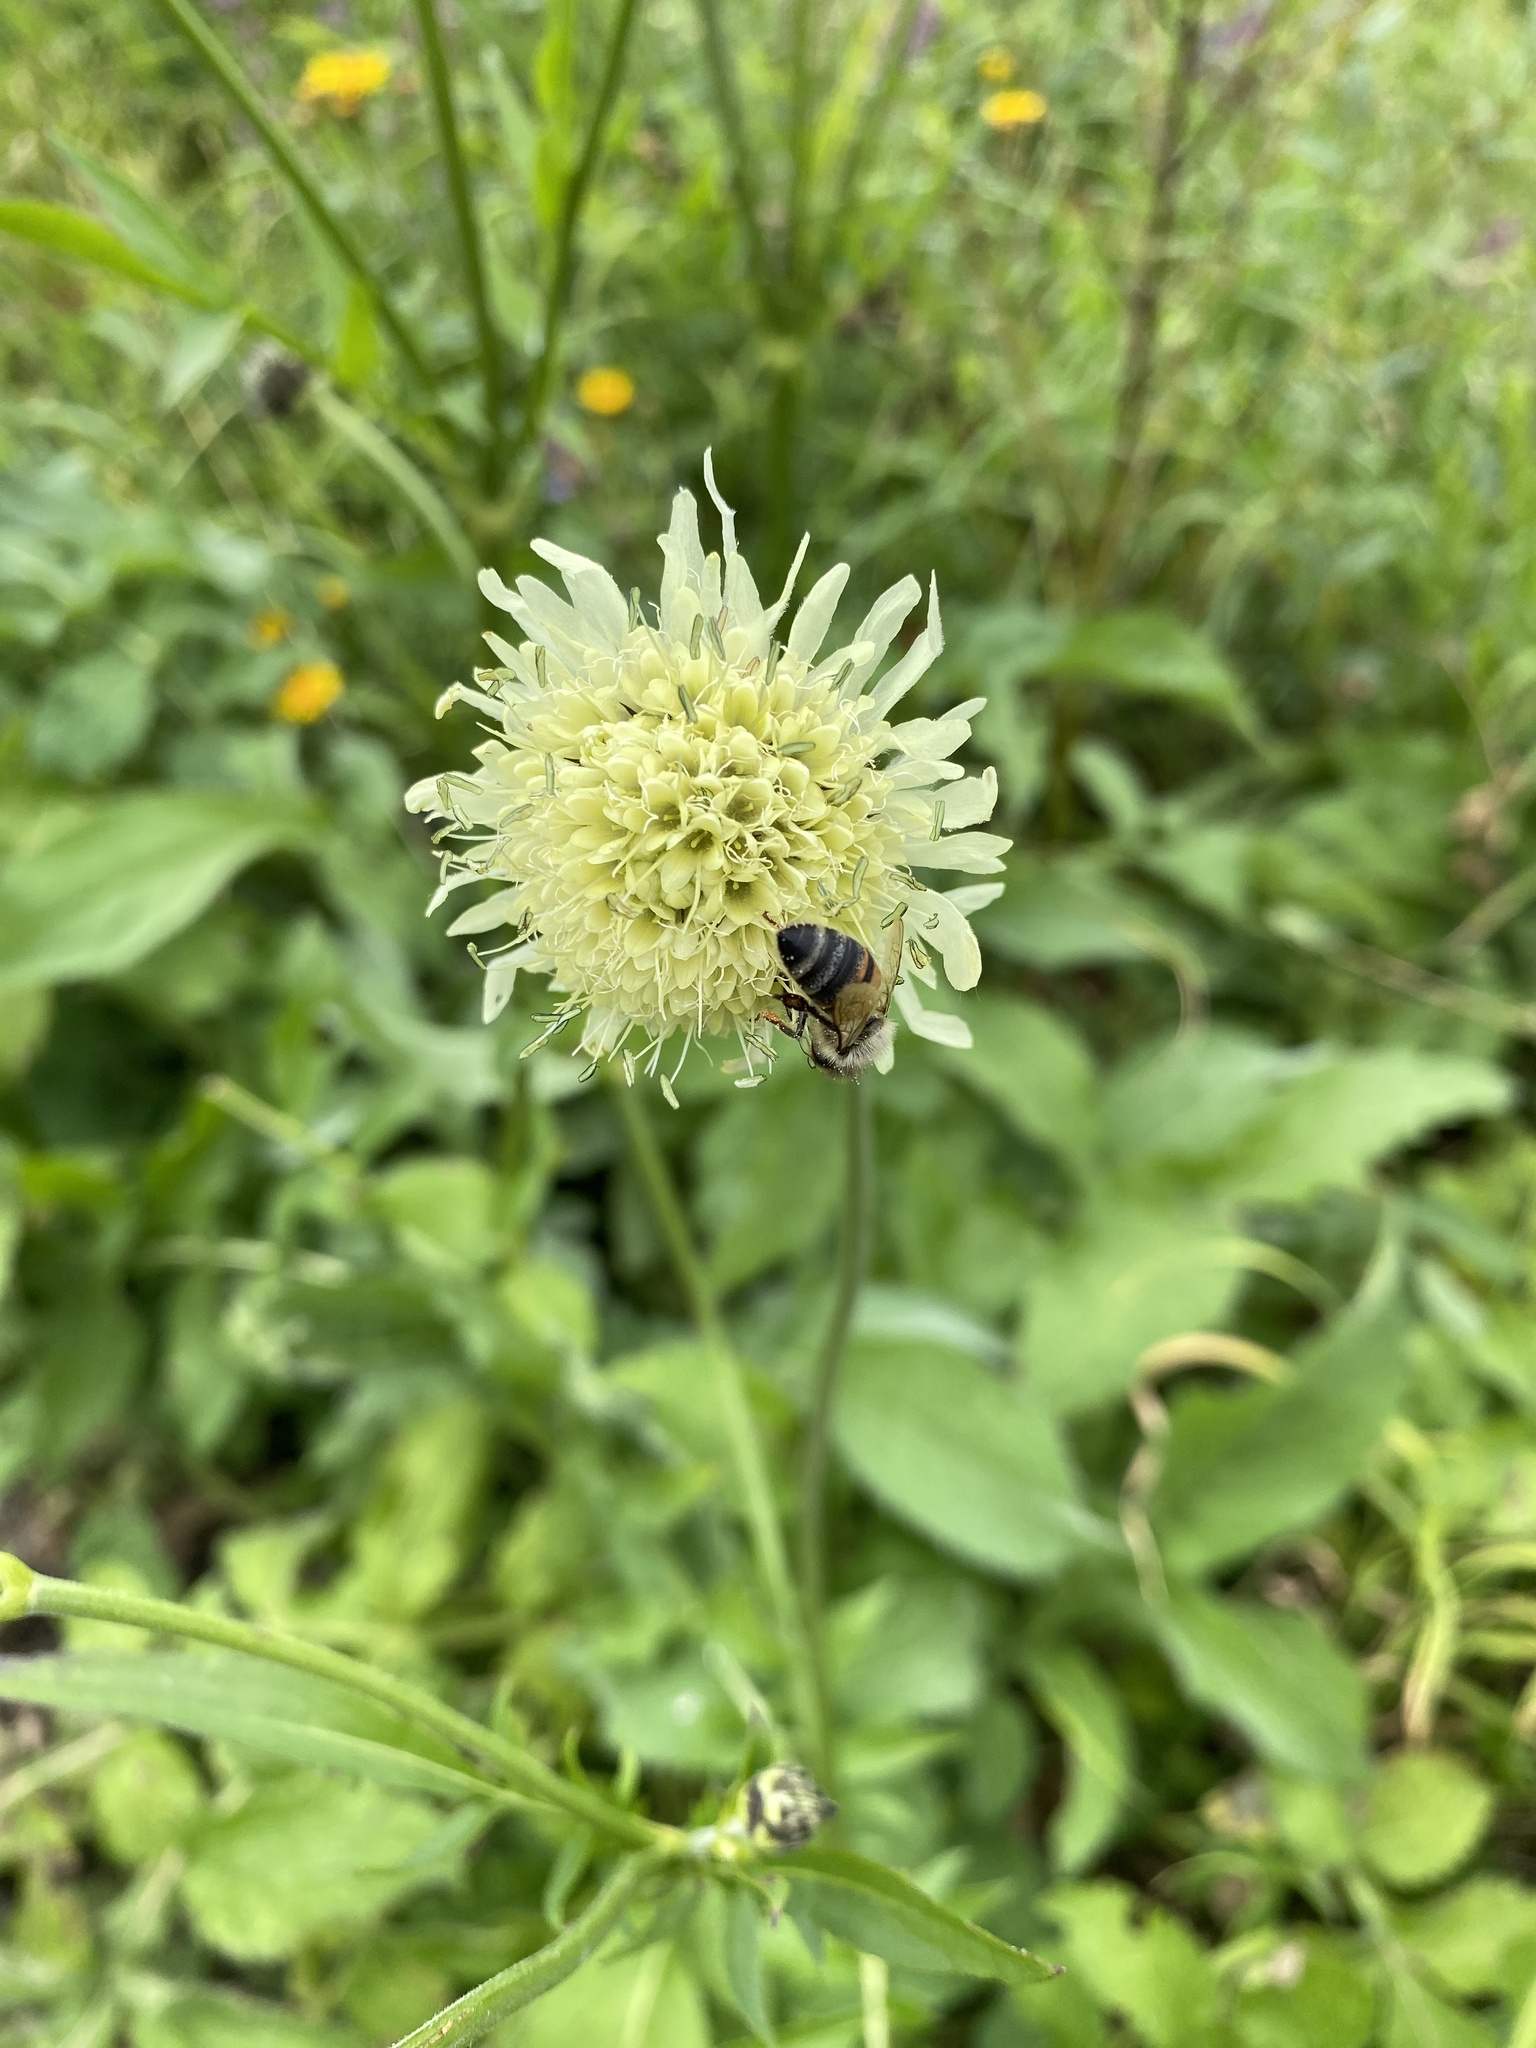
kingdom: Plantae
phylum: Tracheophyta
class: Magnoliopsida
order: Dipsacales
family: Caprifoliaceae
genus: Cephalaria
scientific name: Cephalaria gigantea
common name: Tatarian cephalaria
